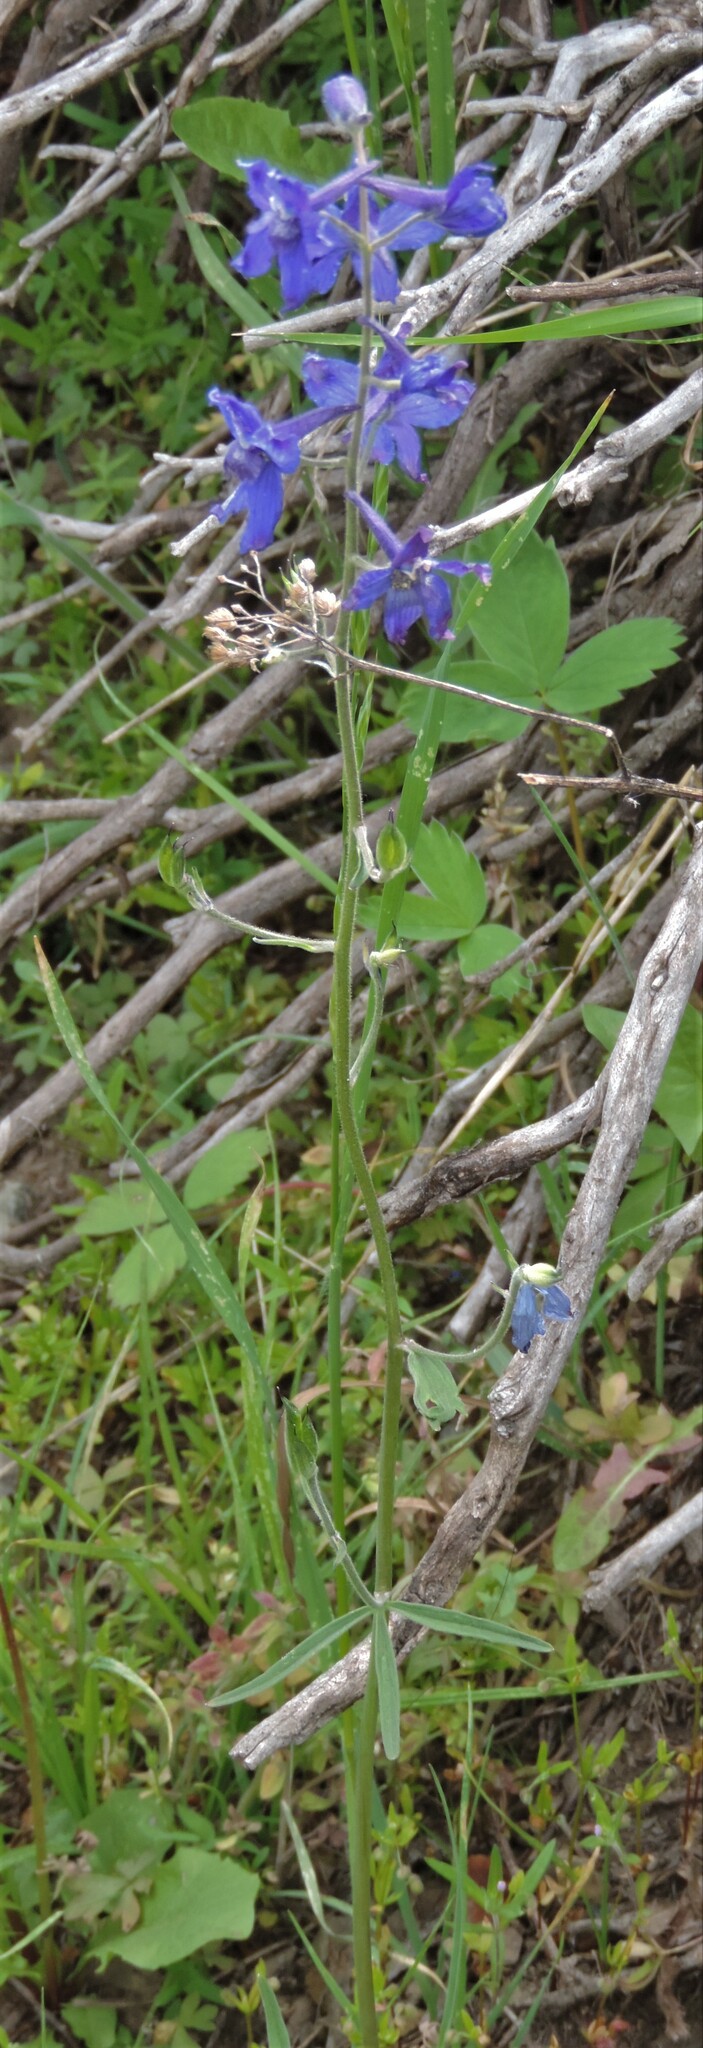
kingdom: Plantae
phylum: Tracheophyta
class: Magnoliopsida
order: Ranunculales
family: Ranunculaceae
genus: Delphinium
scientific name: Delphinium nuttallianum
